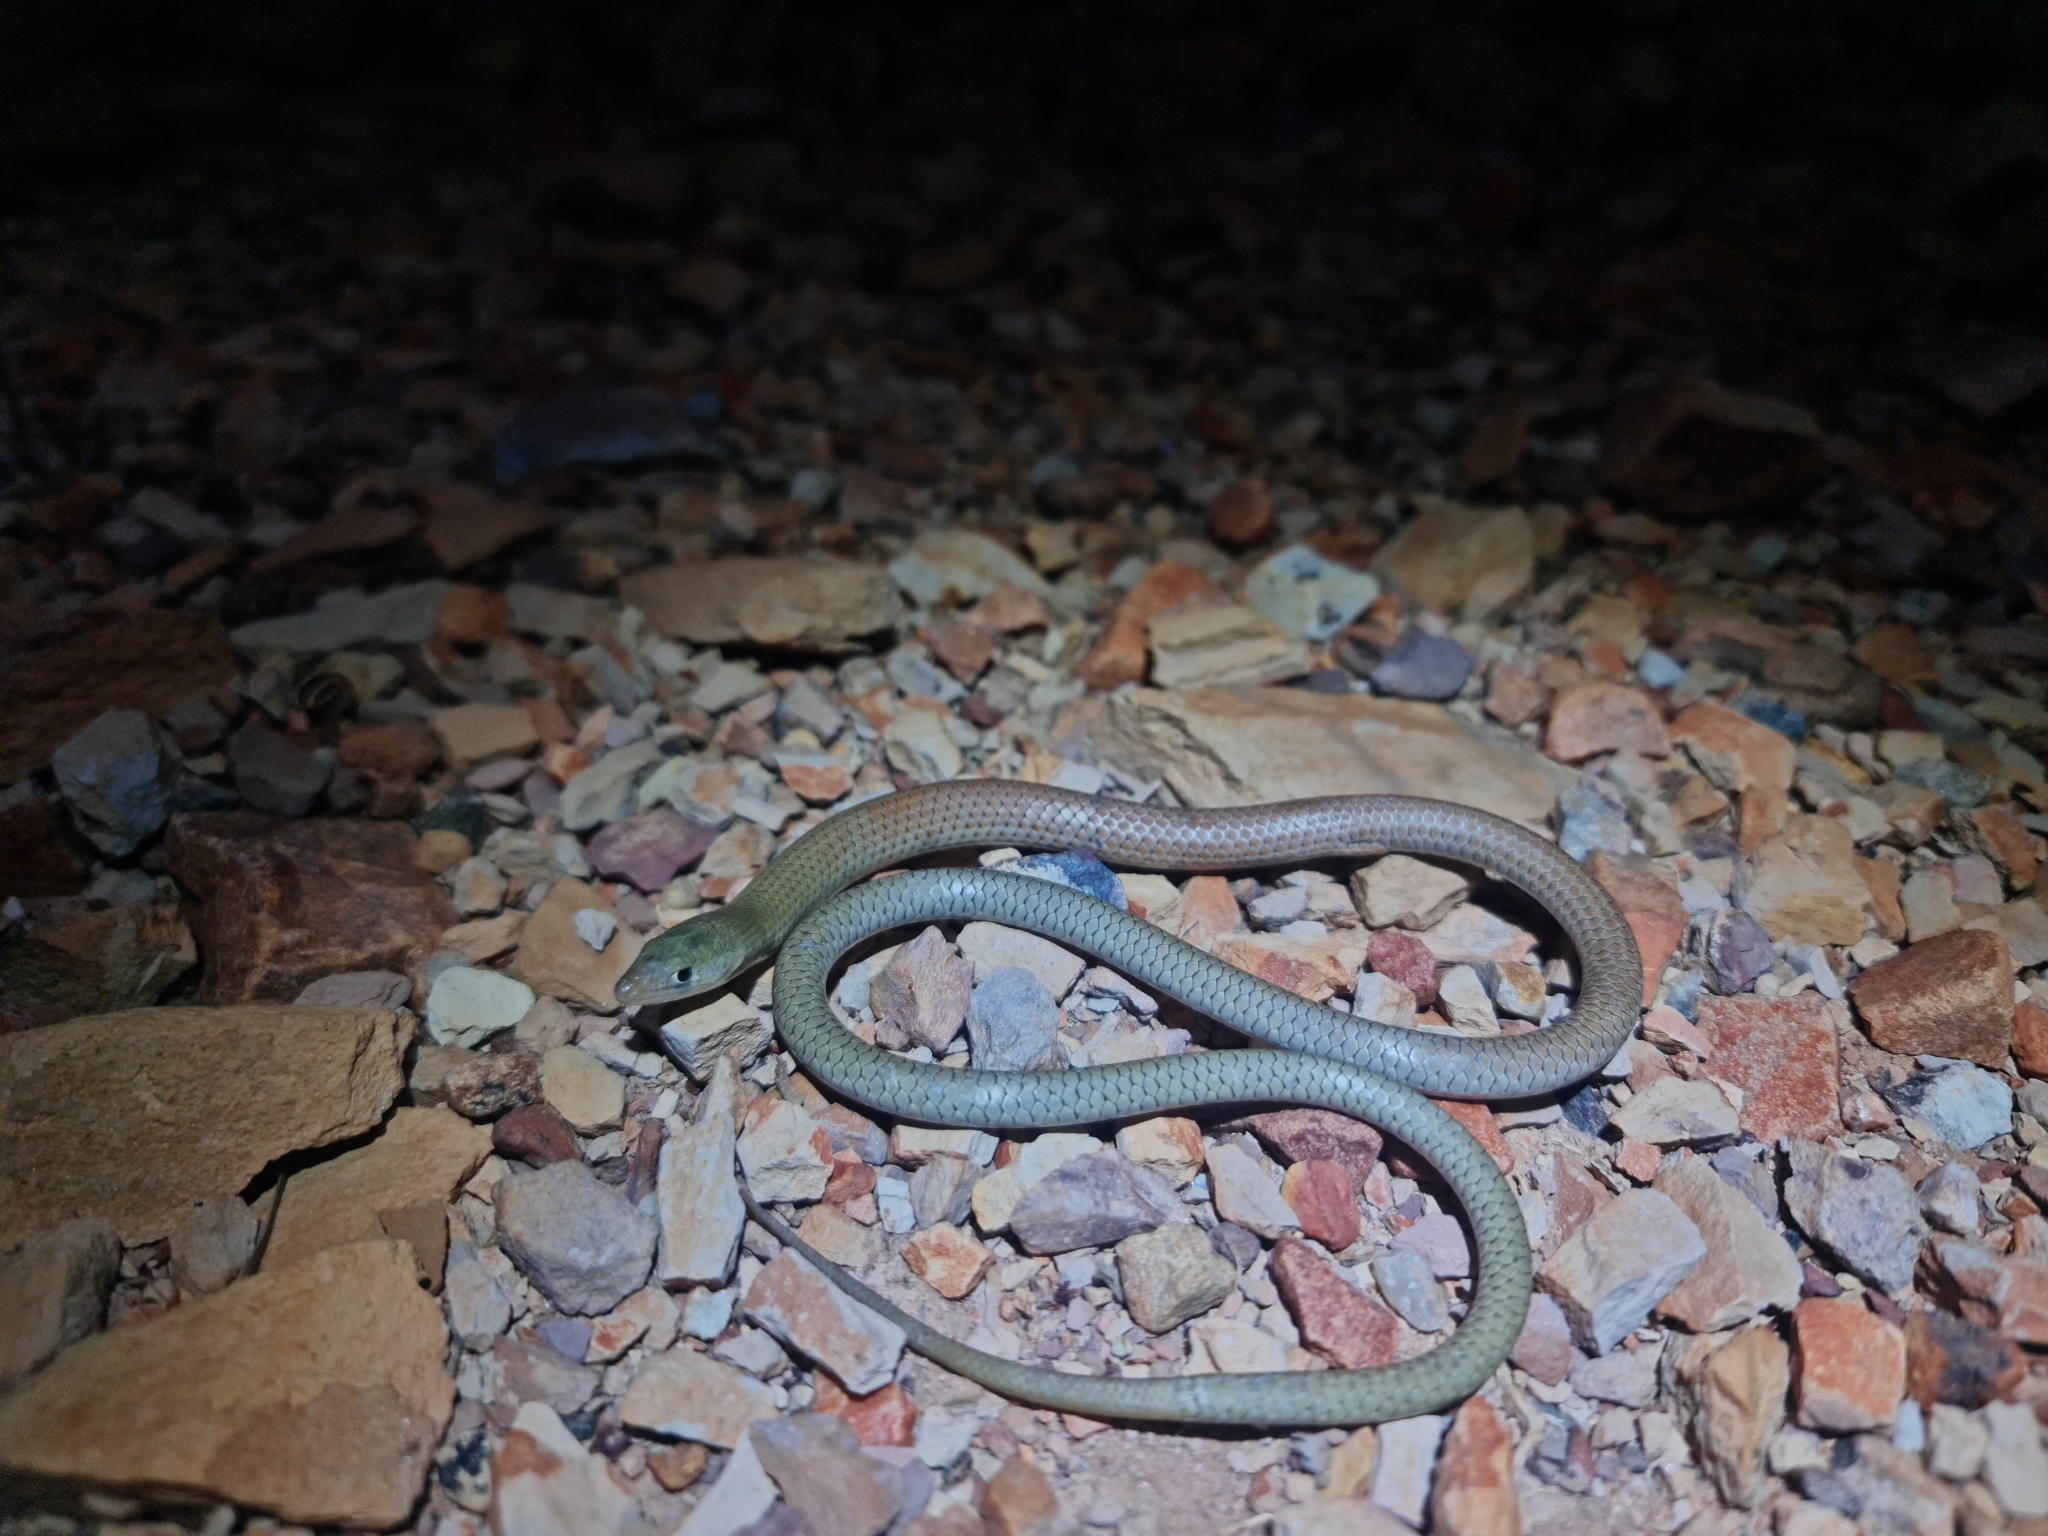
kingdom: Animalia
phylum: Chordata
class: Squamata
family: Pygopodidae
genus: Delma
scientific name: Delma nasuta
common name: Sharp-snouted delma
